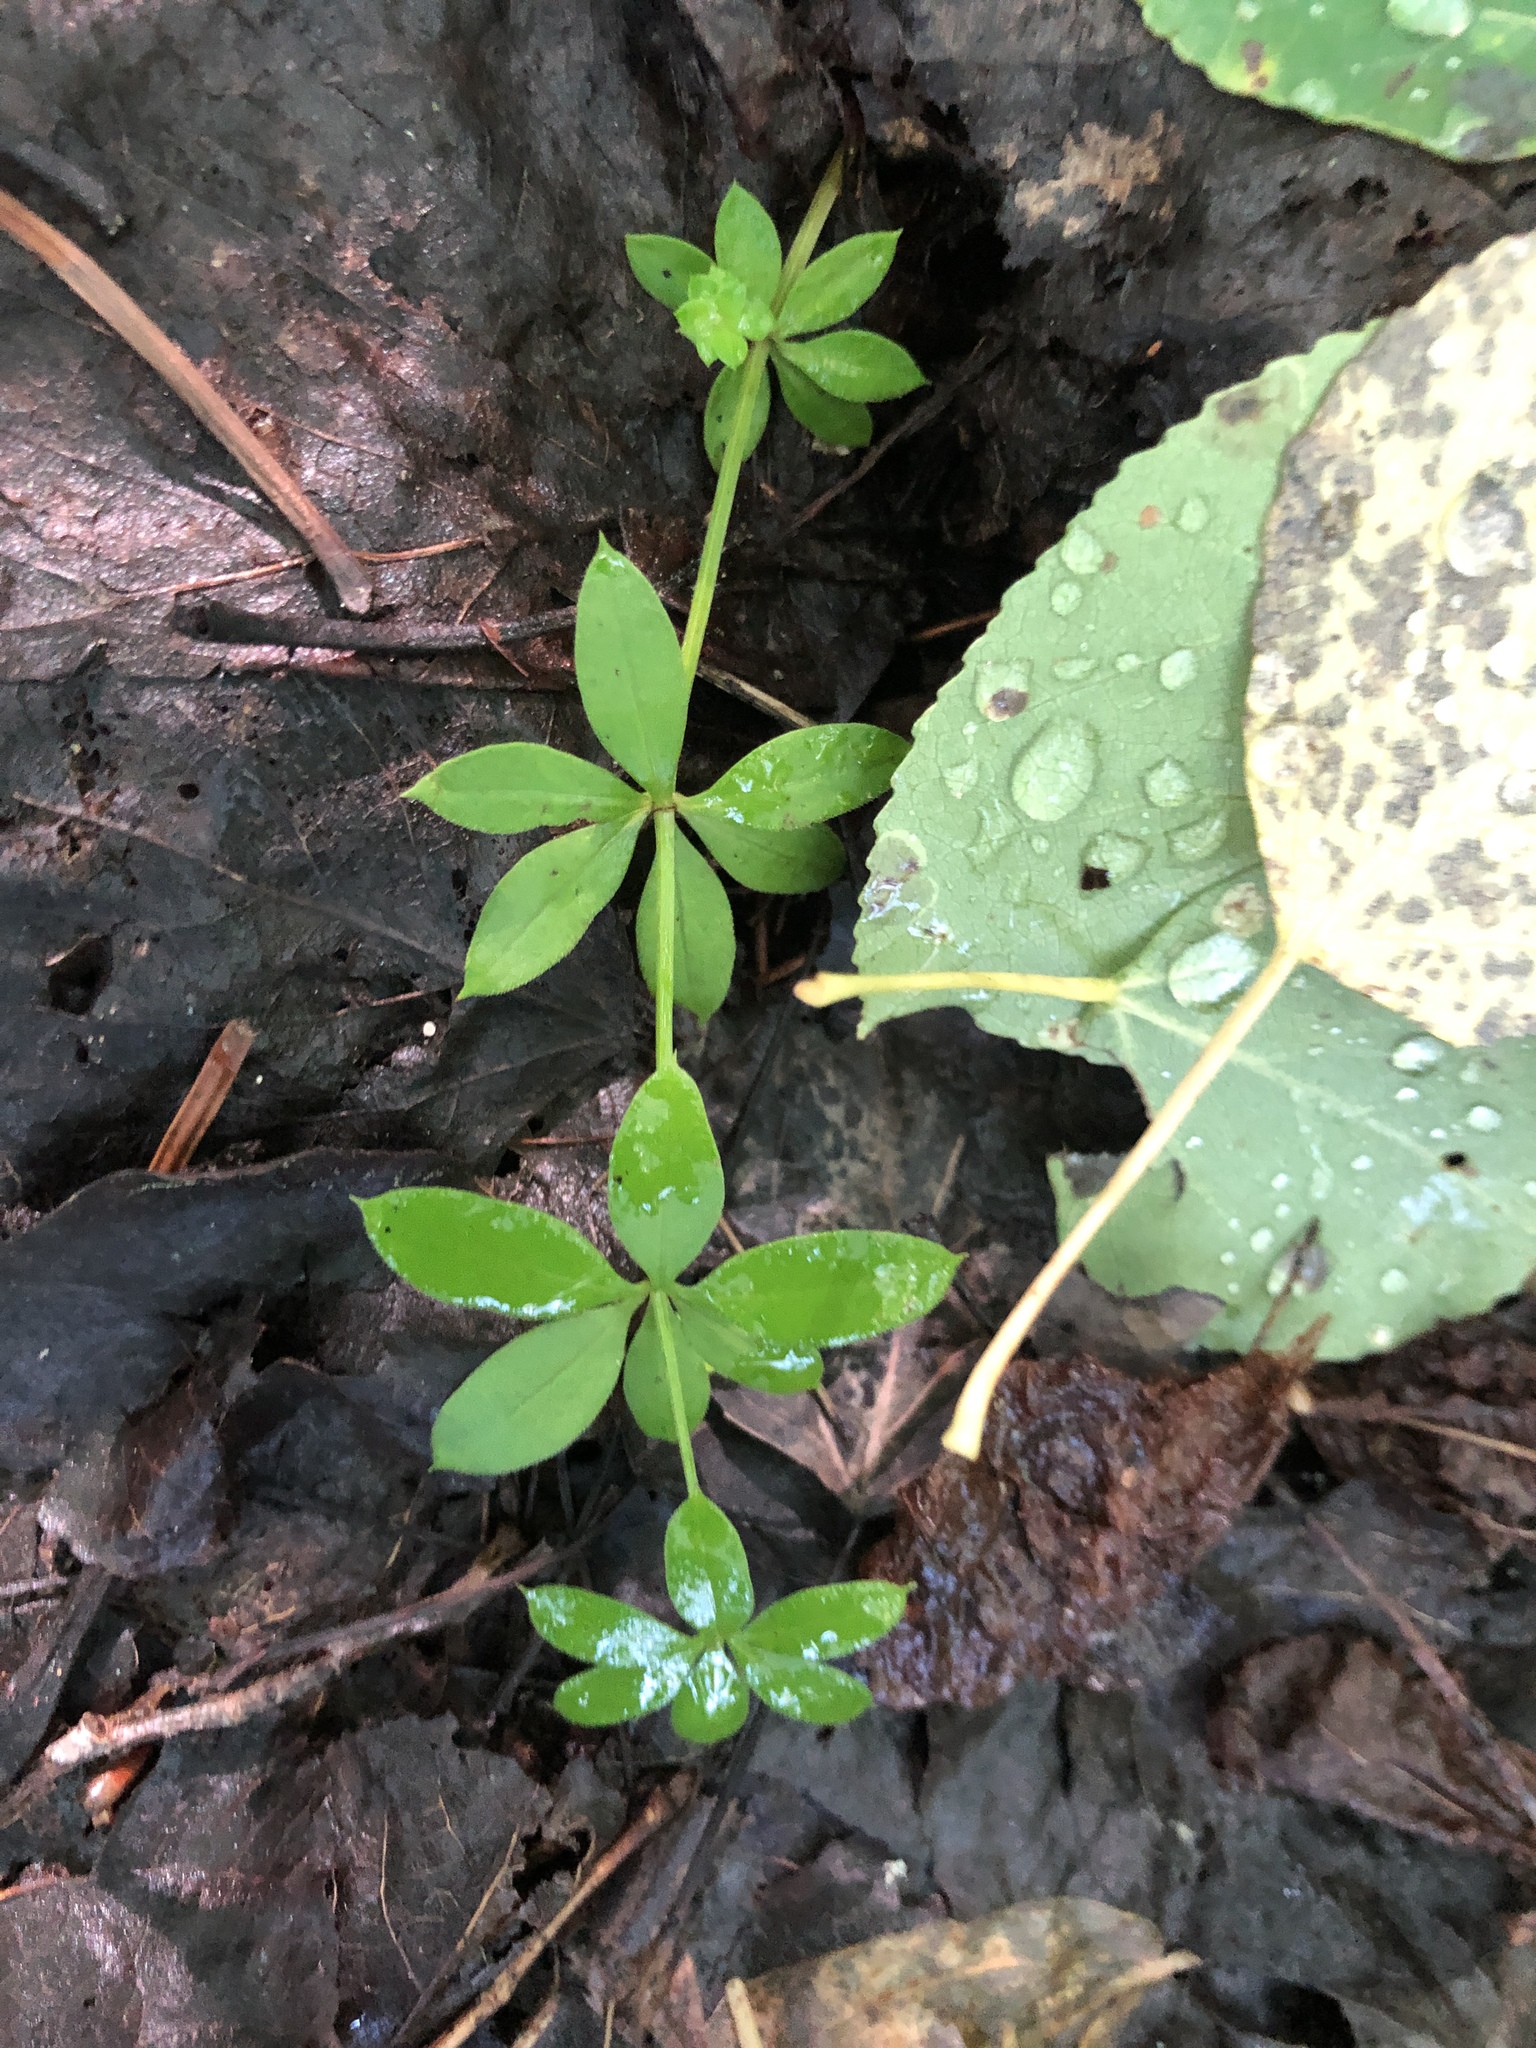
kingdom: Plantae
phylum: Tracheophyta
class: Magnoliopsida
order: Gentianales
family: Rubiaceae
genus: Galium
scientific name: Galium triflorum
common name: Fragrant bedstraw
